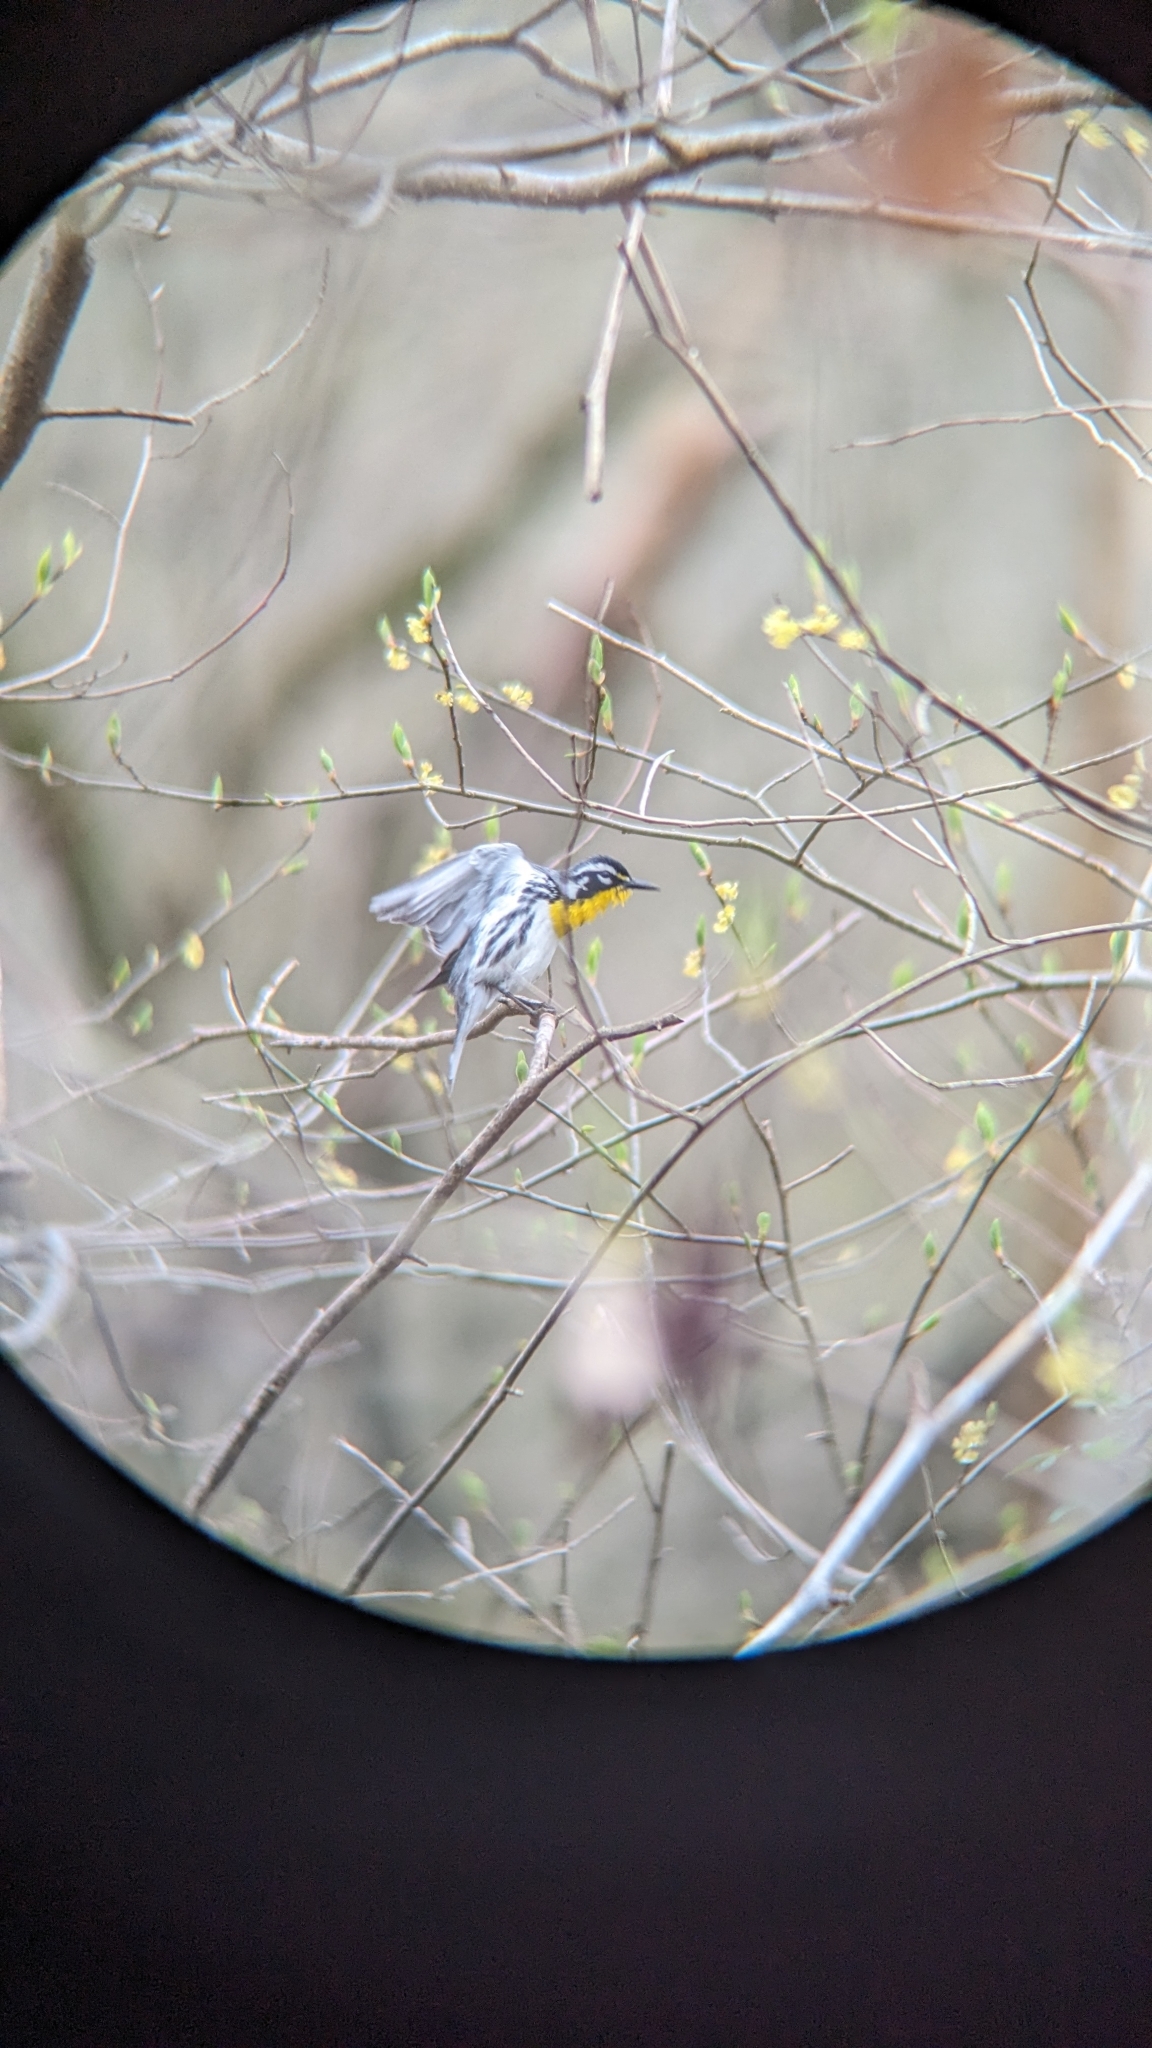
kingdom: Animalia
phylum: Chordata
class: Aves
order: Passeriformes
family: Parulidae
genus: Setophaga
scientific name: Setophaga dominica
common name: Yellow-throated warbler
